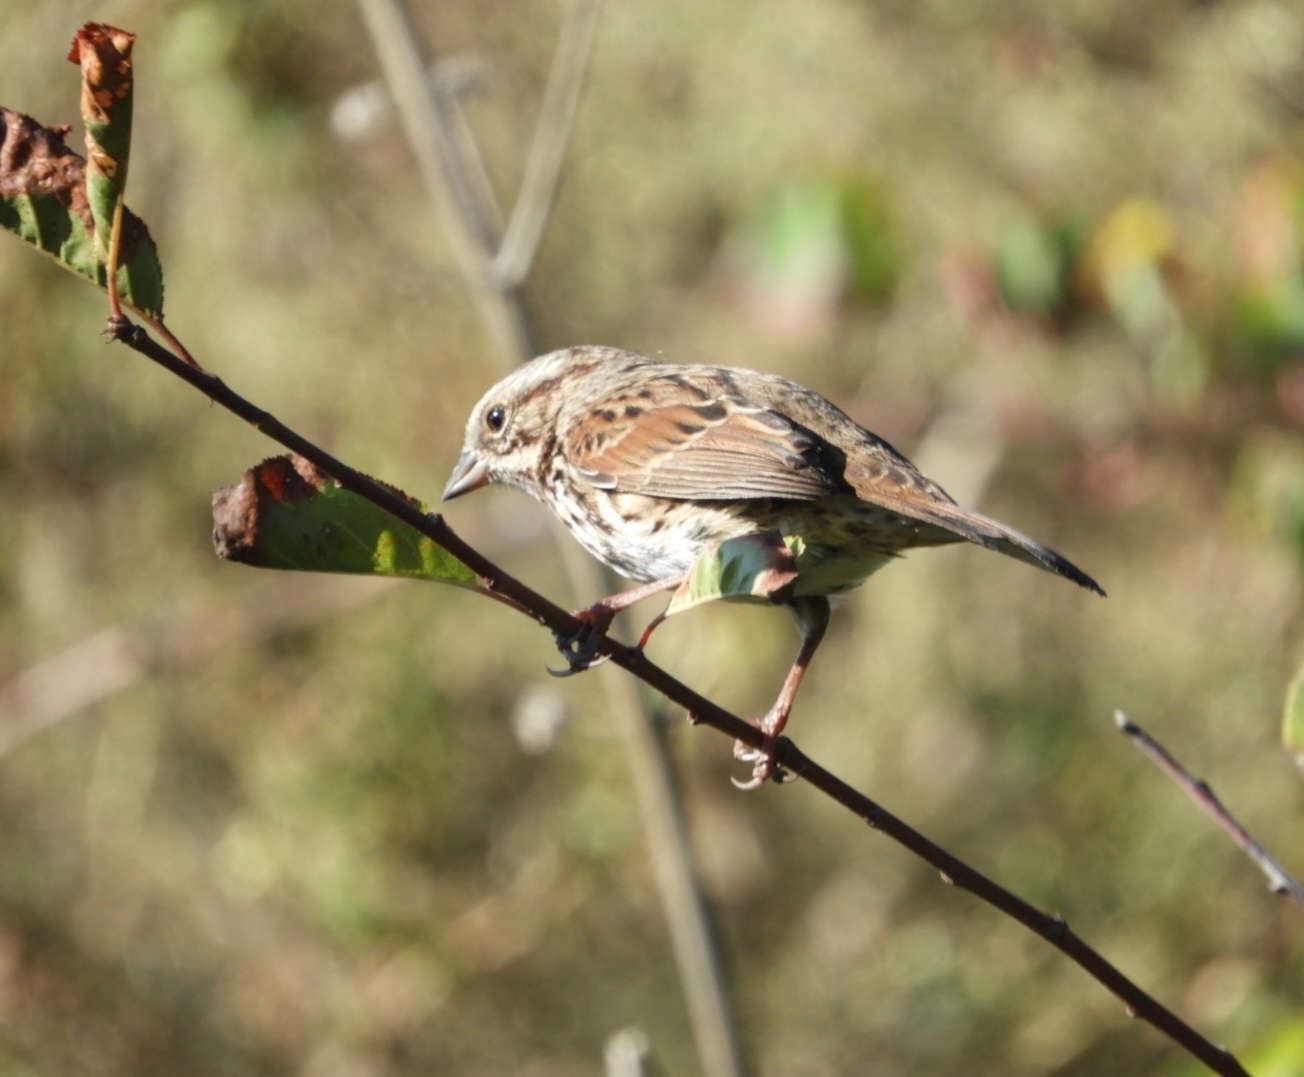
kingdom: Animalia
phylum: Chordata
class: Aves
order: Passeriformes
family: Passerellidae
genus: Melospiza
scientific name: Melospiza melodia
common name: Song sparrow
